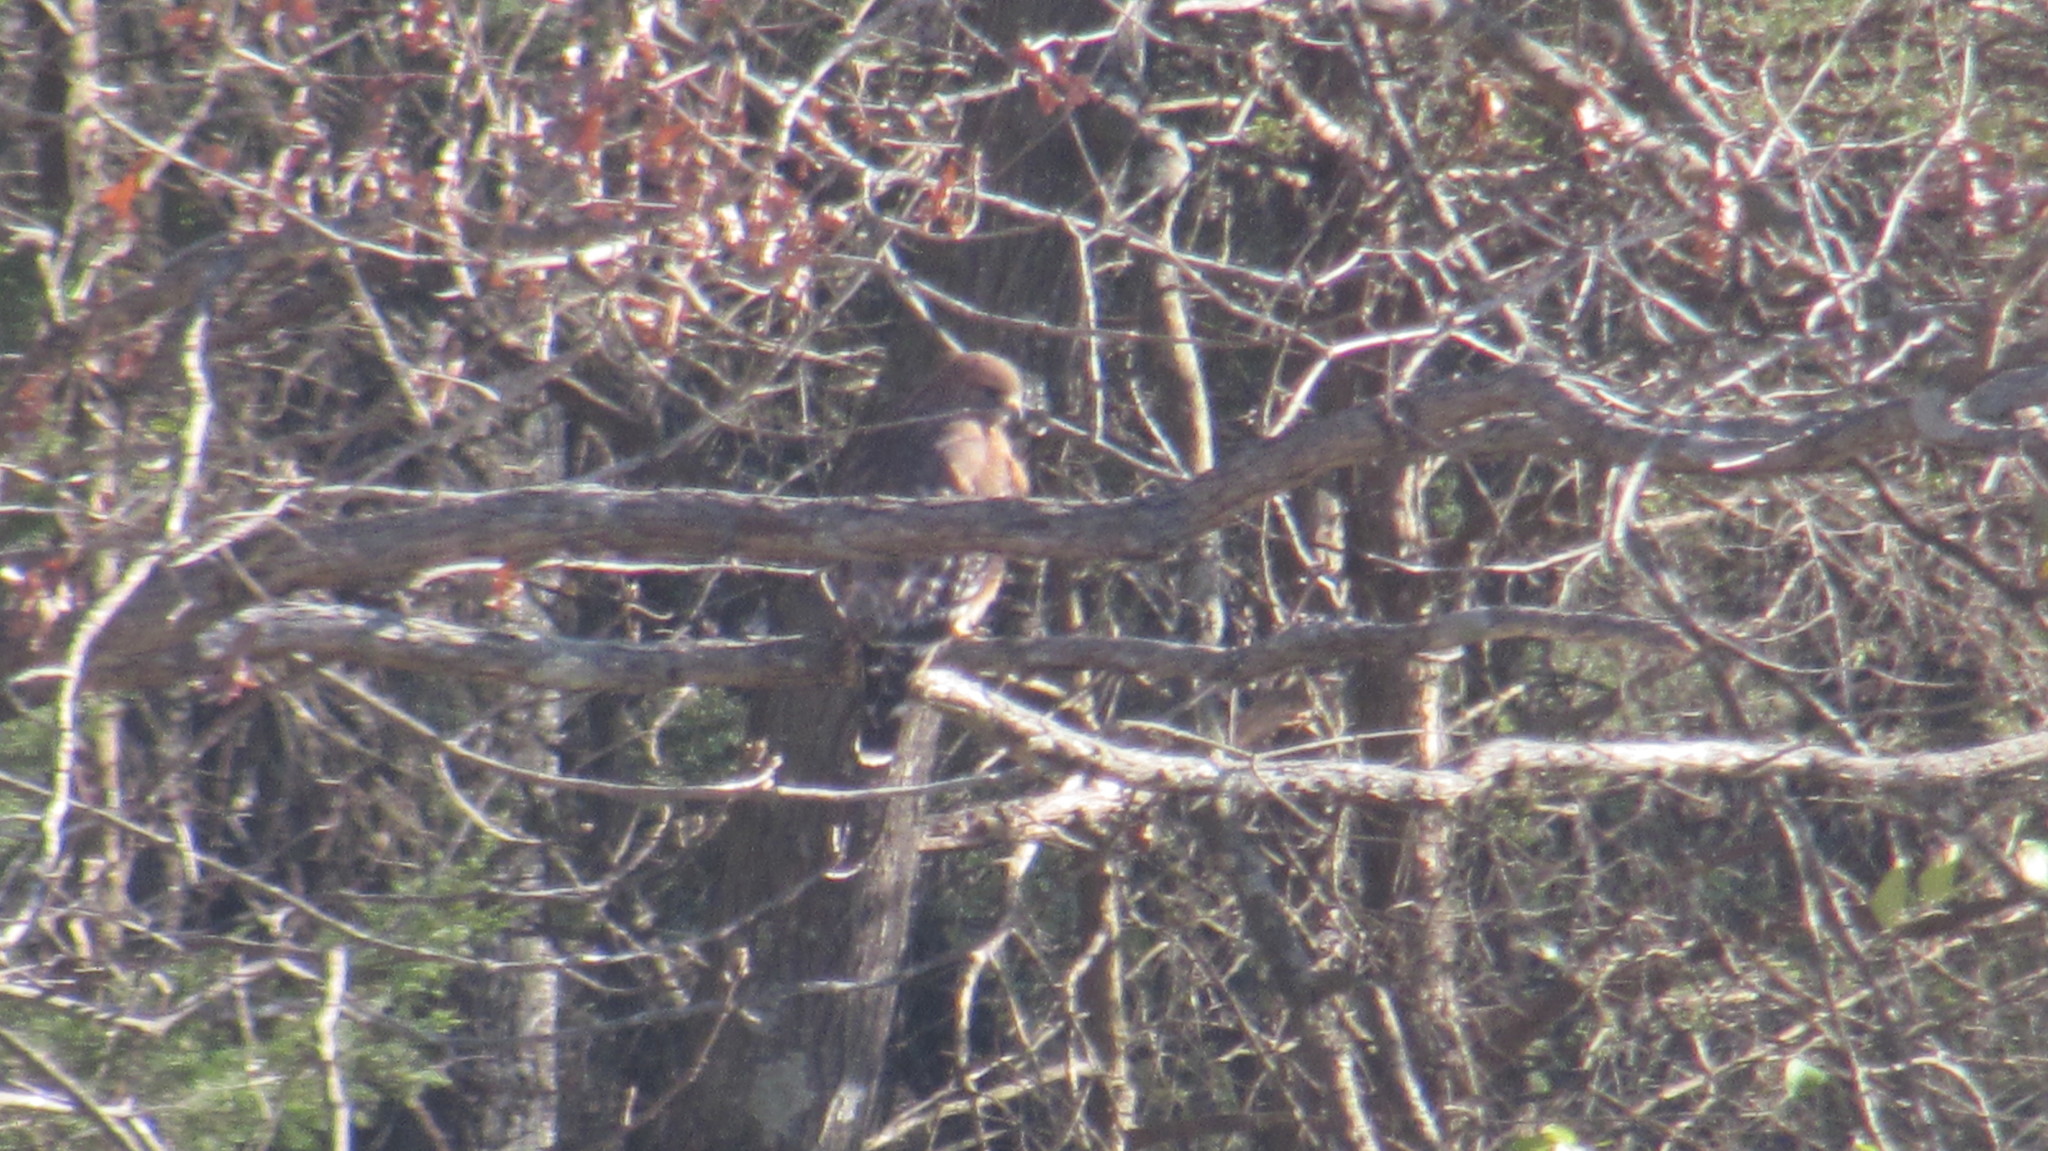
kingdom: Animalia
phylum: Chordata
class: Aves
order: Accipitriformes
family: Accipitridae
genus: Buteo
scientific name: Buteo lineatus
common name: Red-shouldered hawk
